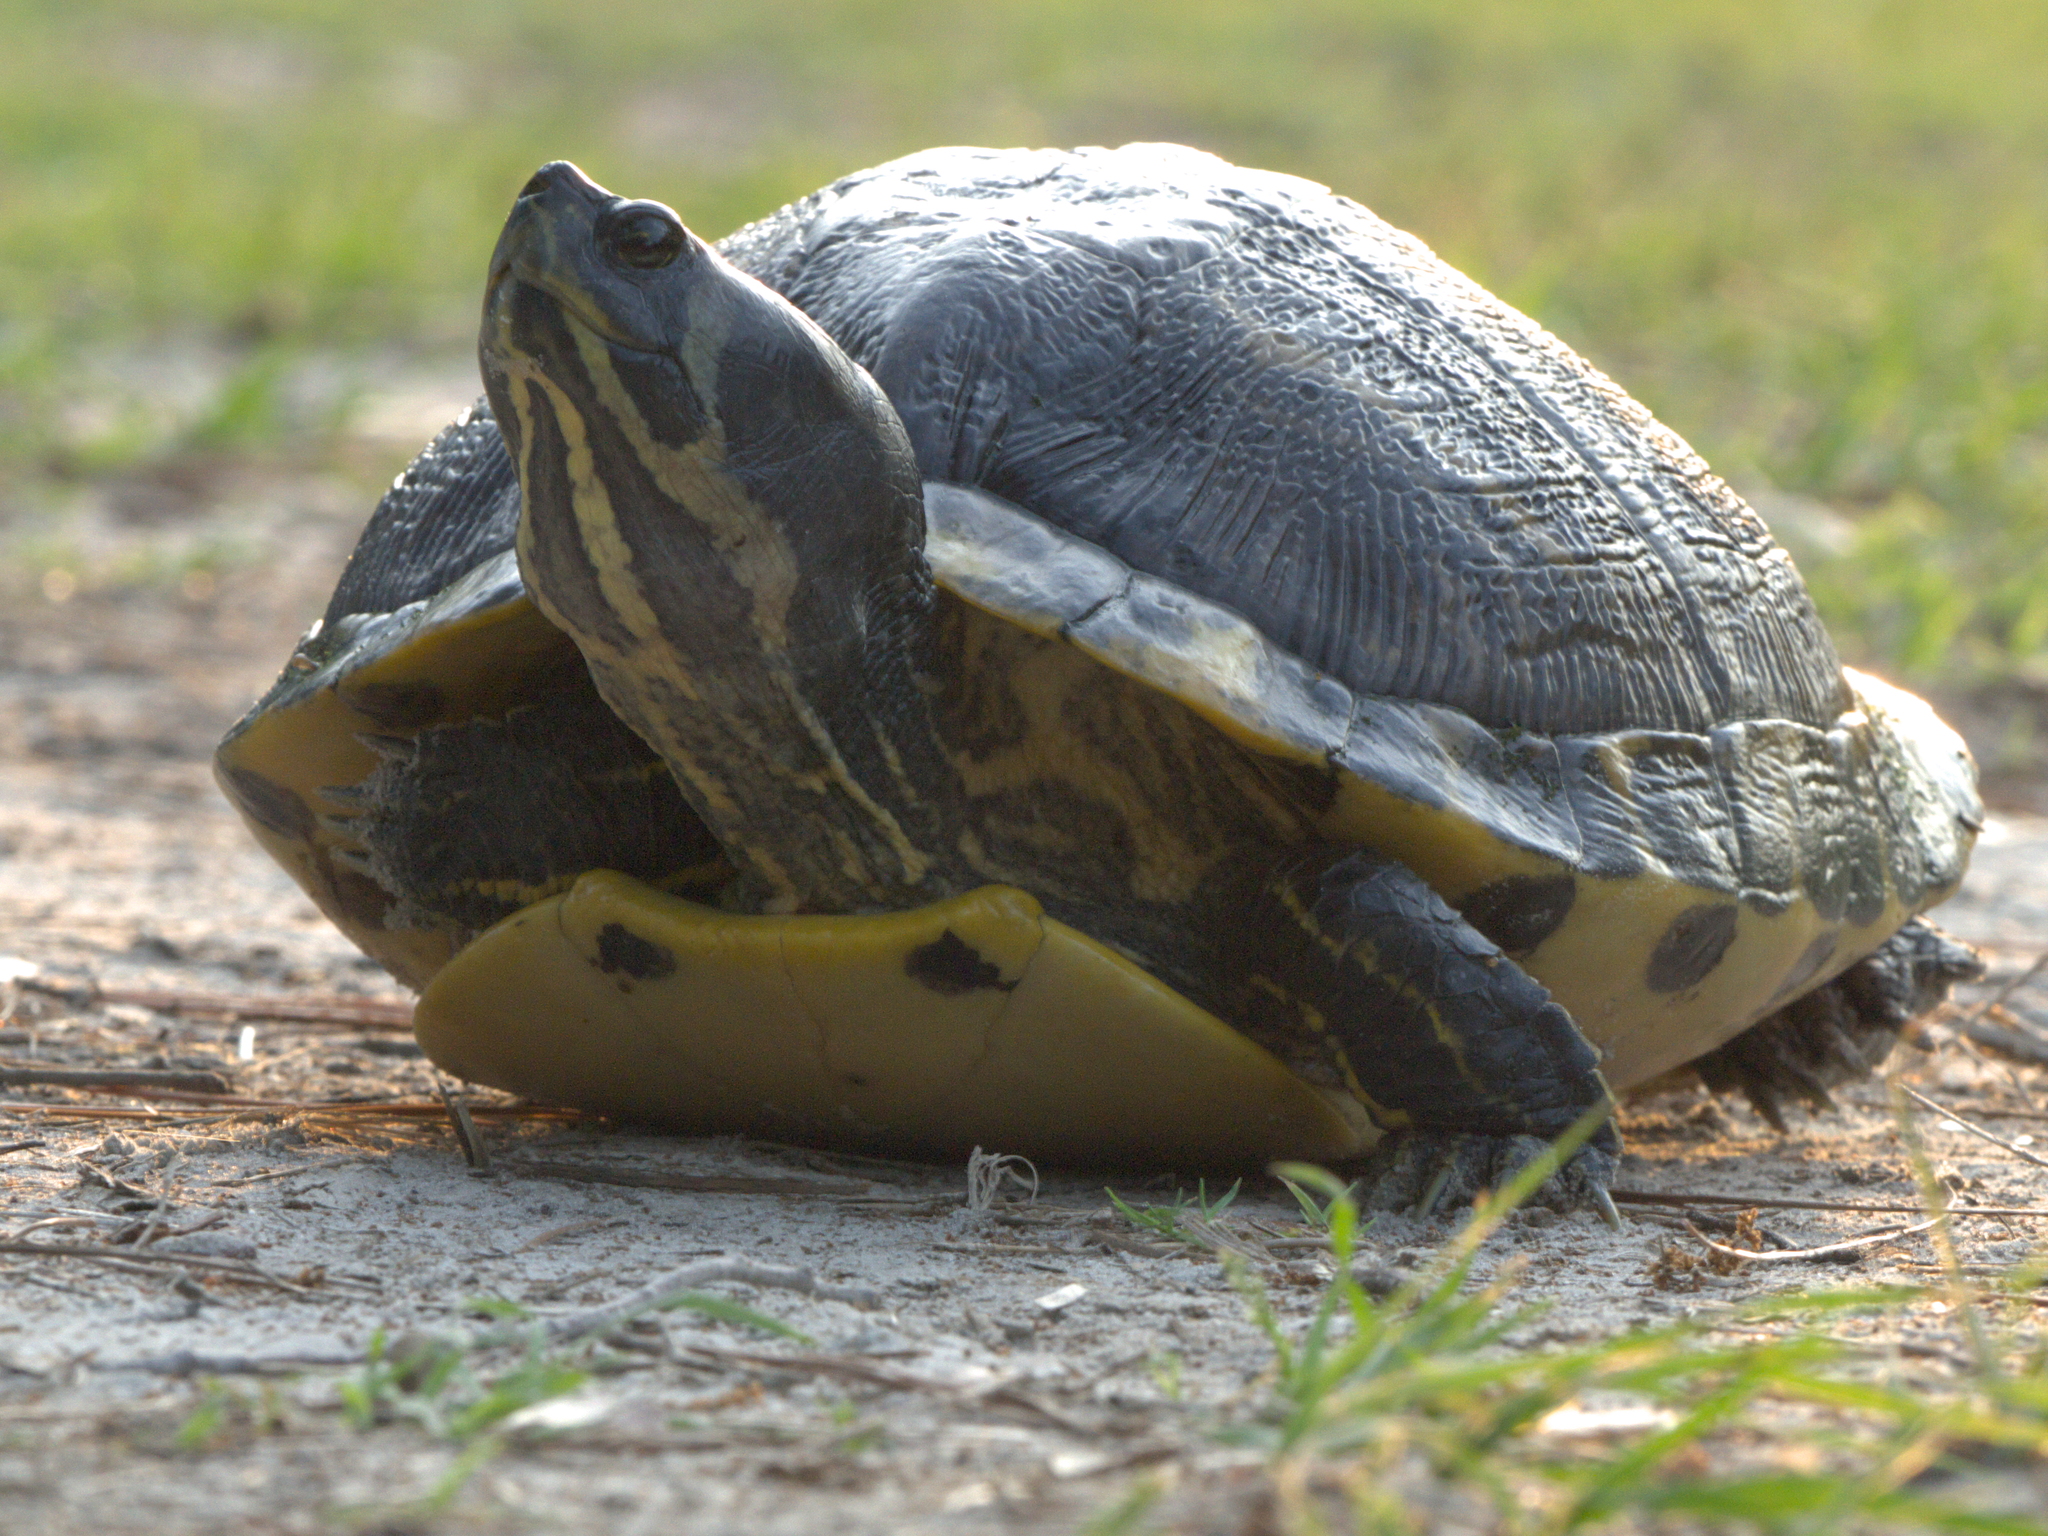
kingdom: Animalia
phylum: Chordata
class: Testudines
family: Emydidae
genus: Trachemys
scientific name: Trachemys scripta
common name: Slider
